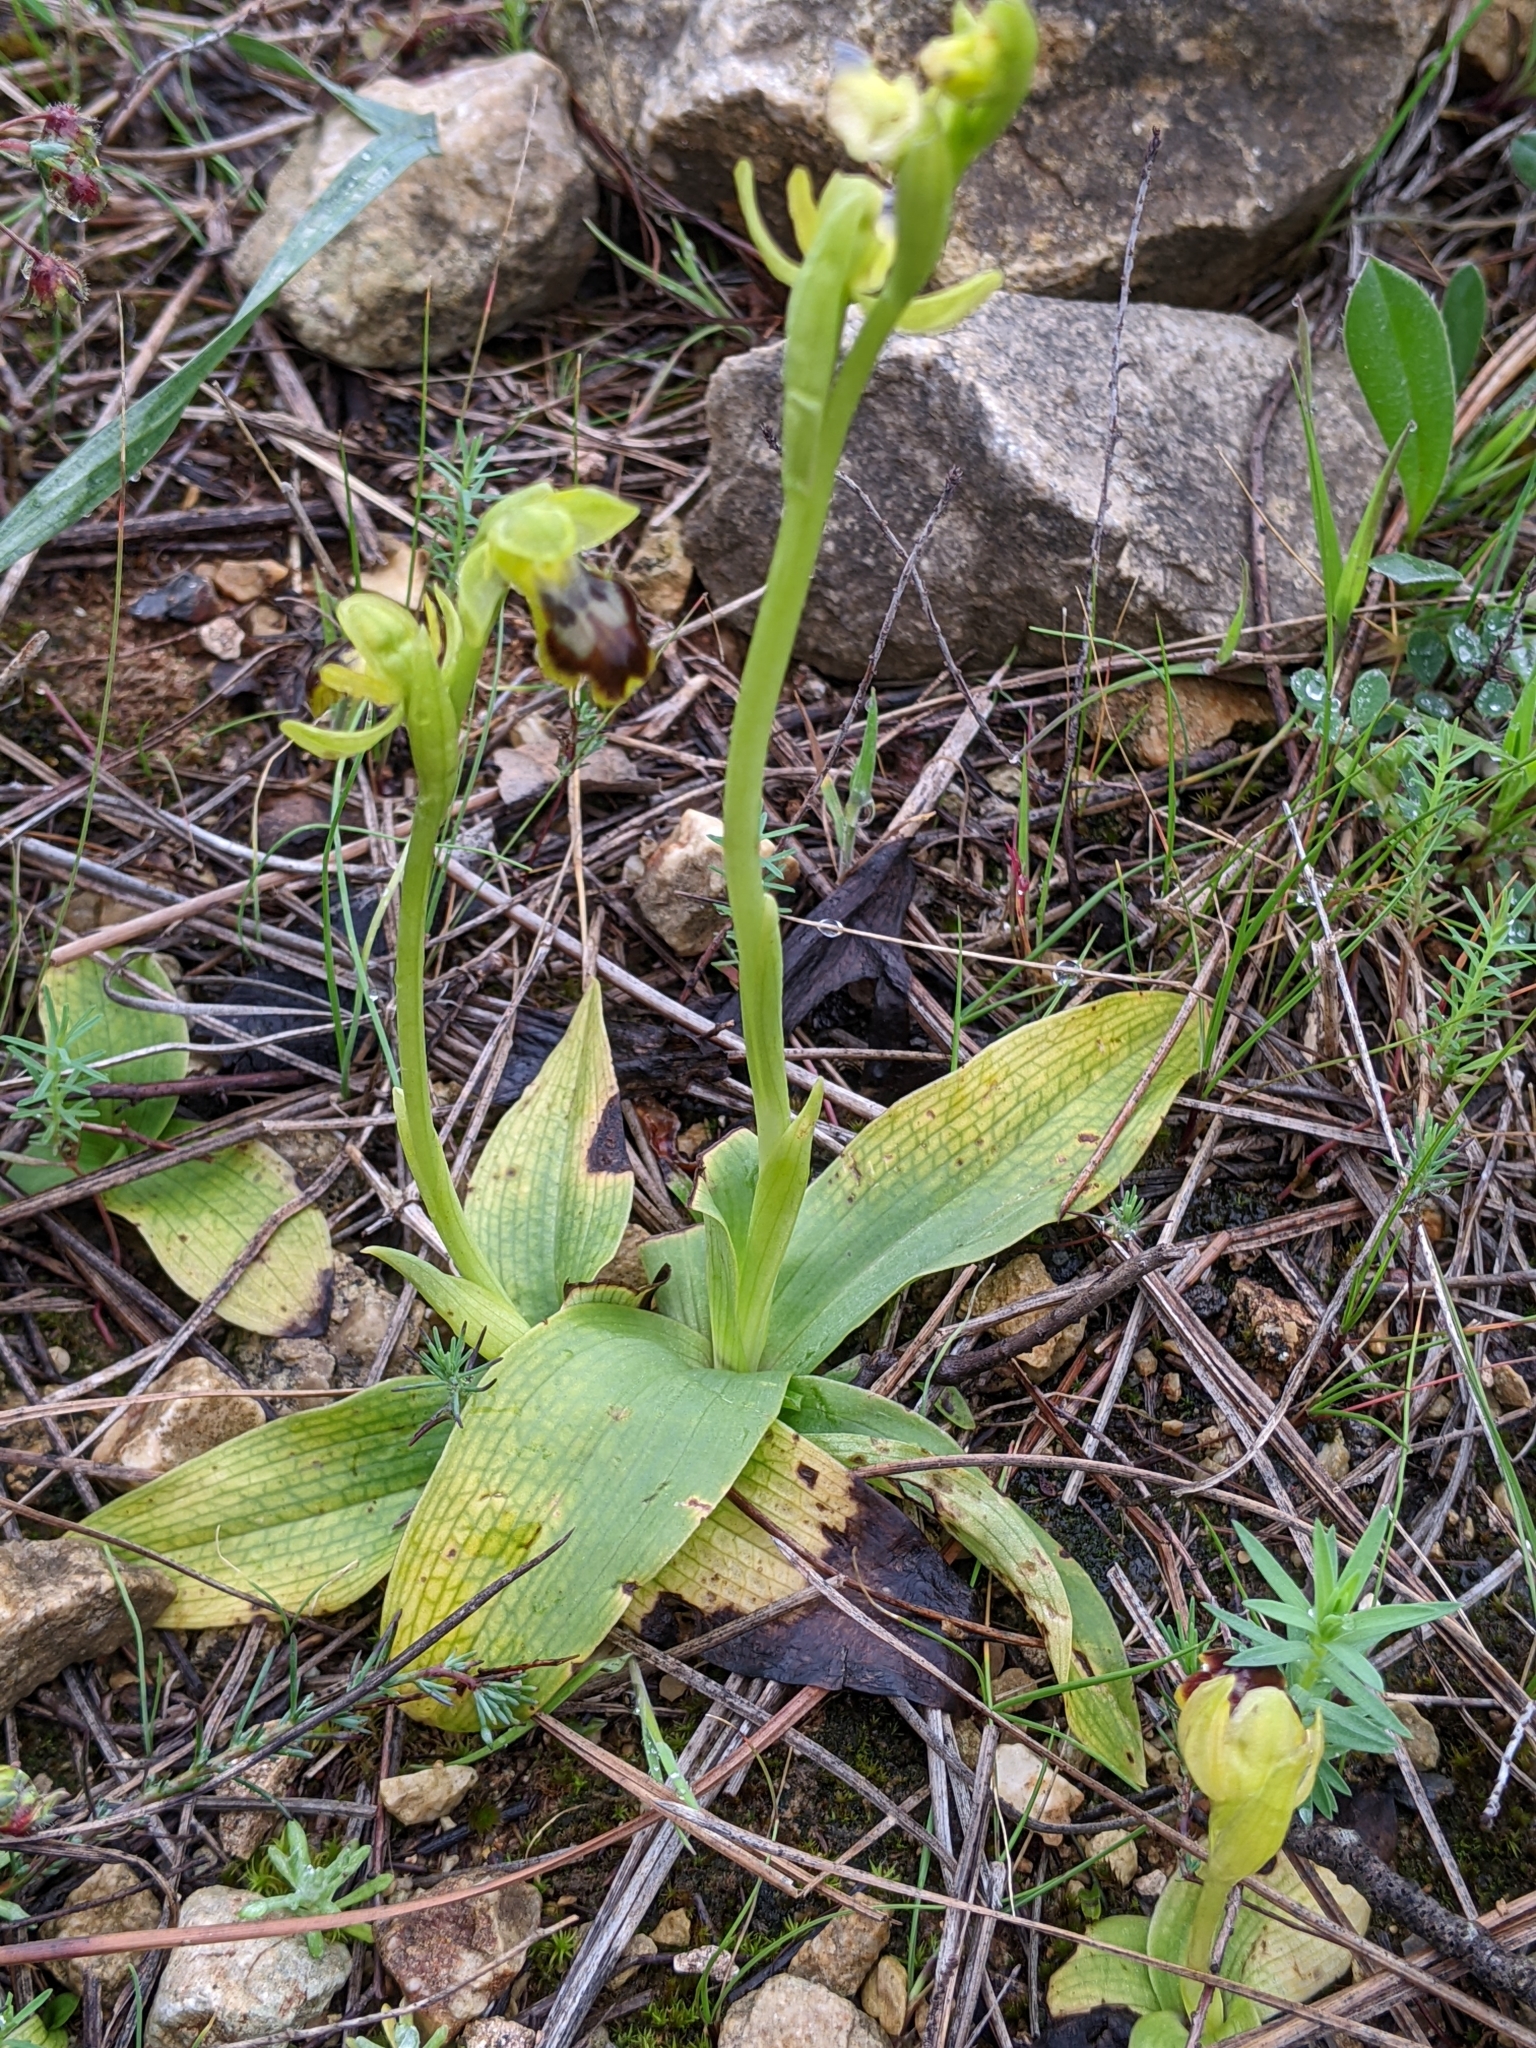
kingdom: Plantae
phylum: Tracheophyta
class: Liliopsida
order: Asparagales
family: Orchidaceae
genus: Ophrys
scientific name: Ophrys fusca
